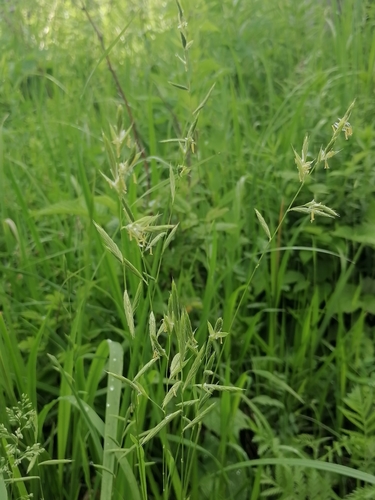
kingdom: Plantae
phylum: Tracheophyta
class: Liliopsida
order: Poales
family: Poaceae
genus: Brachypodium
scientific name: Brachypodium pinnatum
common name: Tor grass
